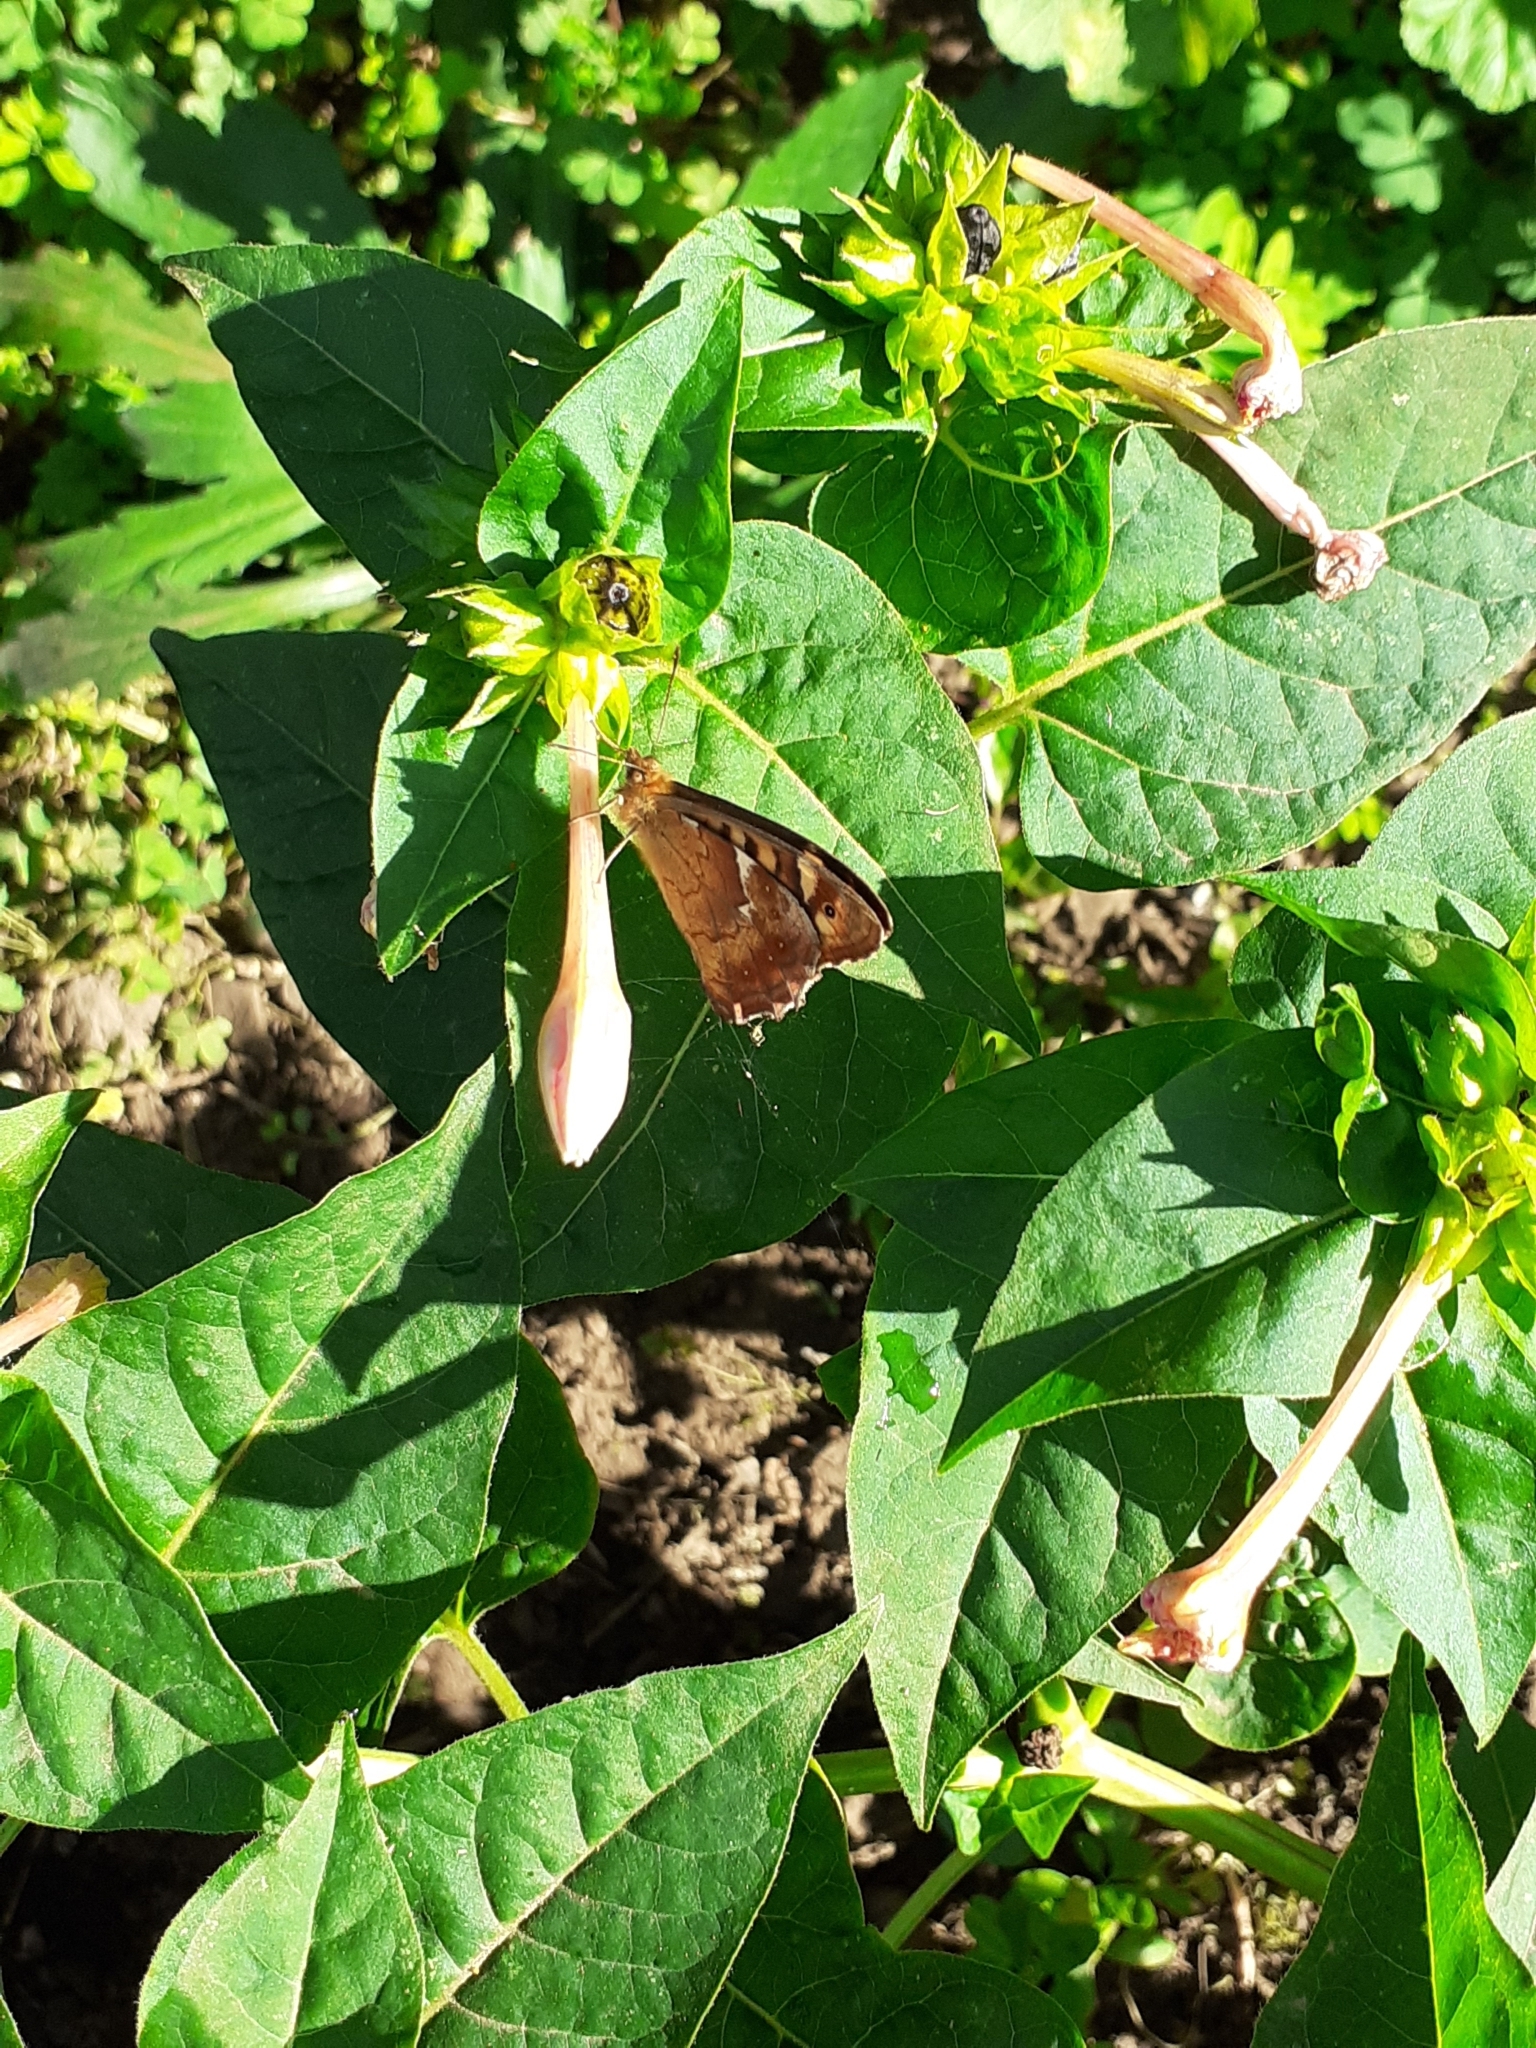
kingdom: Animalia
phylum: Arthropoda
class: Insecta
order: Lepidoptera
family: Nymphalidae
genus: Pararge
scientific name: Pararge aegeria
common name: Speckled wood
